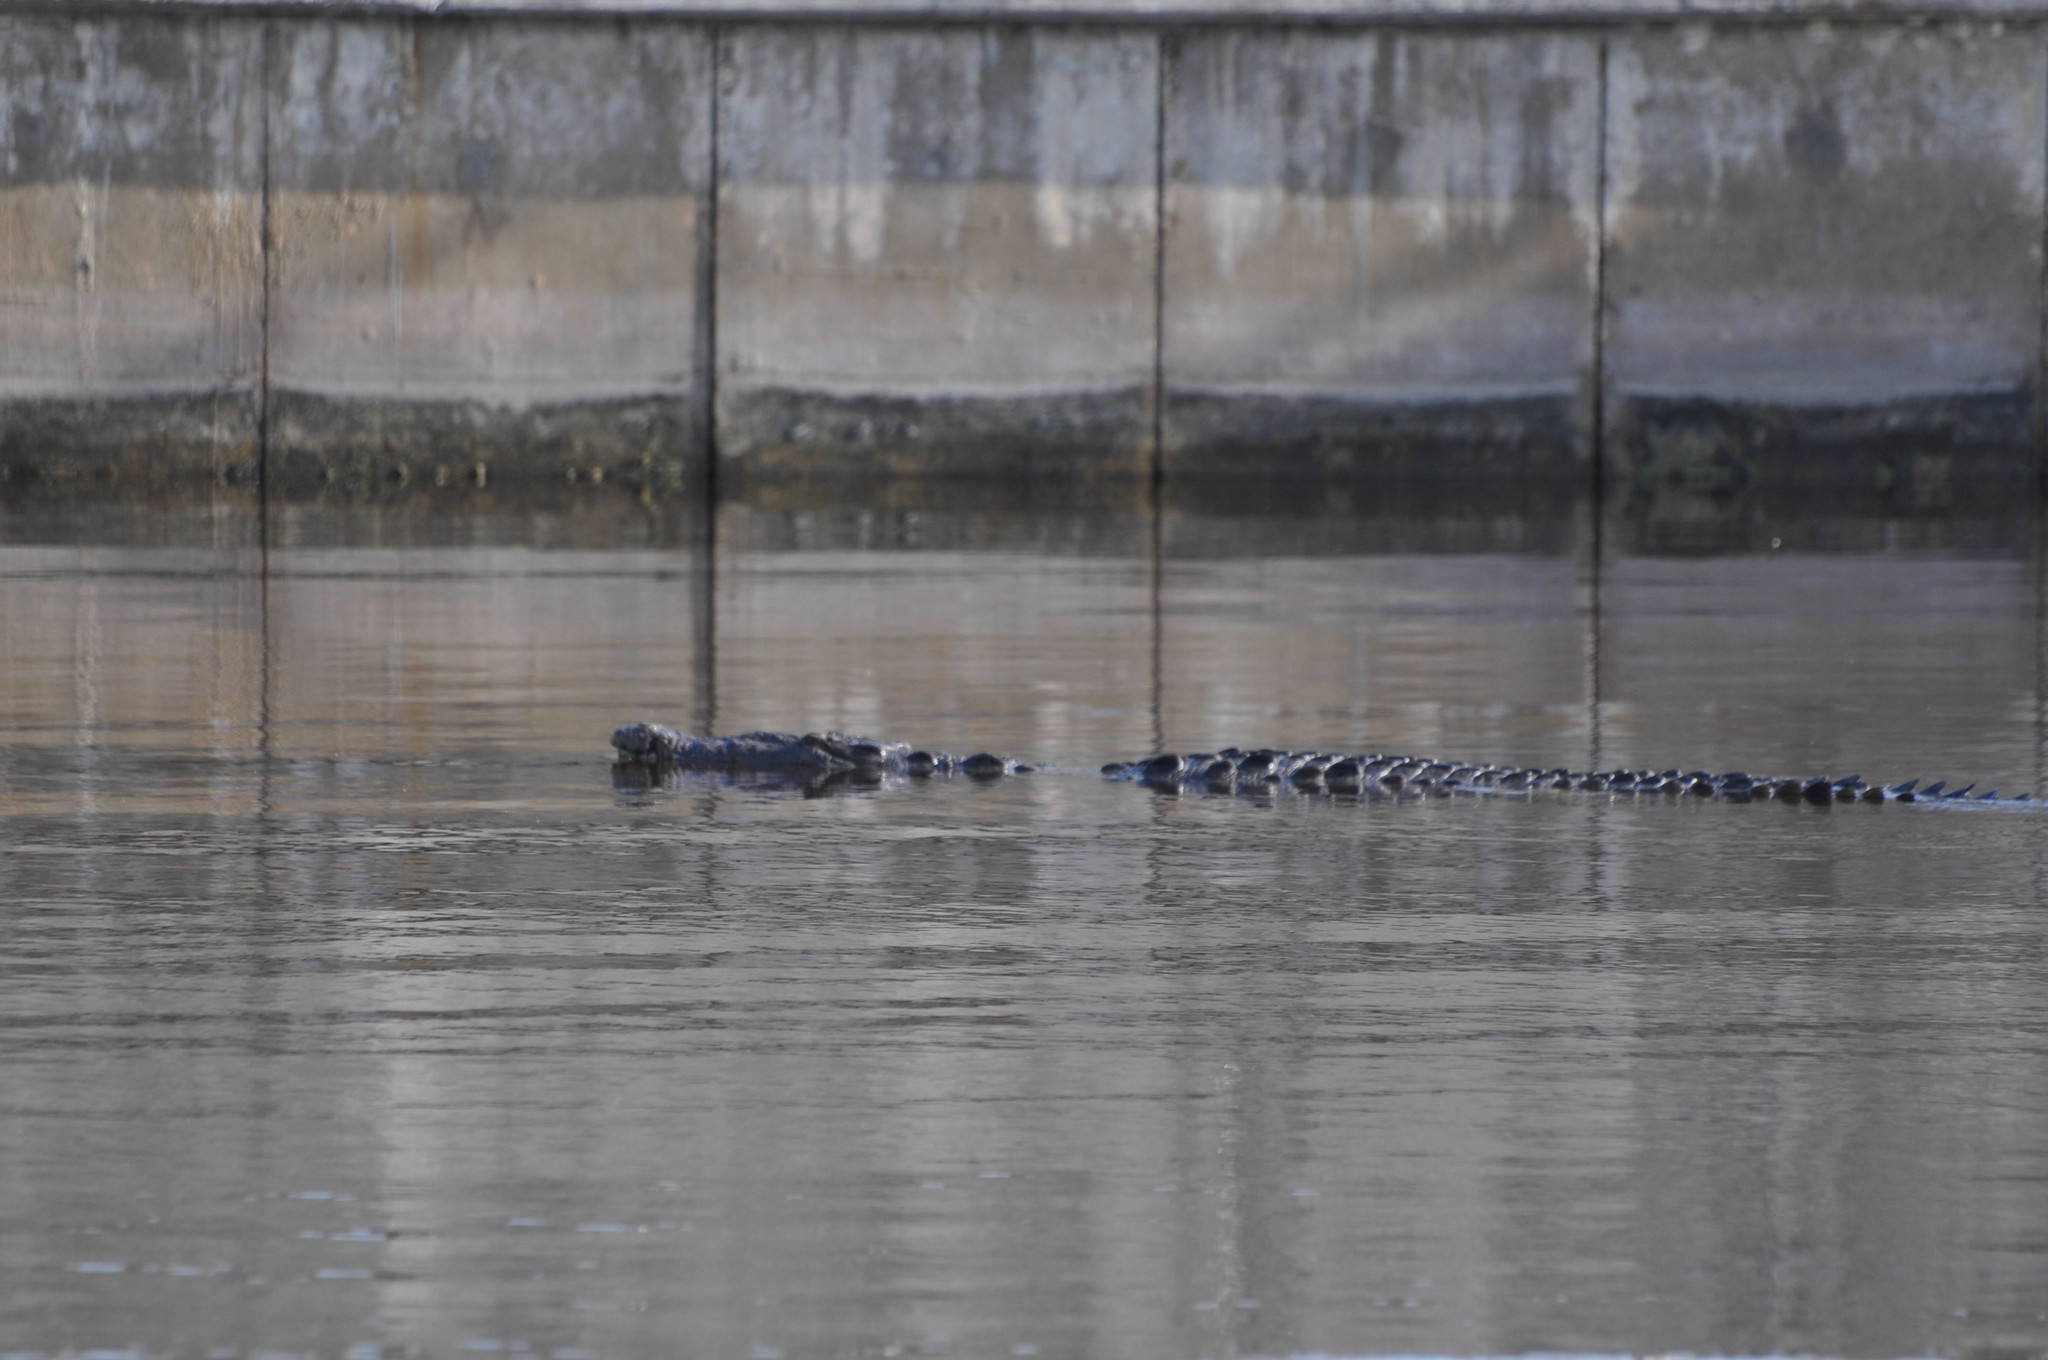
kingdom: Animalia
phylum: Chordata
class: Crocodylia
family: Crocodylidae
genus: Crocodylus
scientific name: Crocodylus acutus
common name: American crocodile
